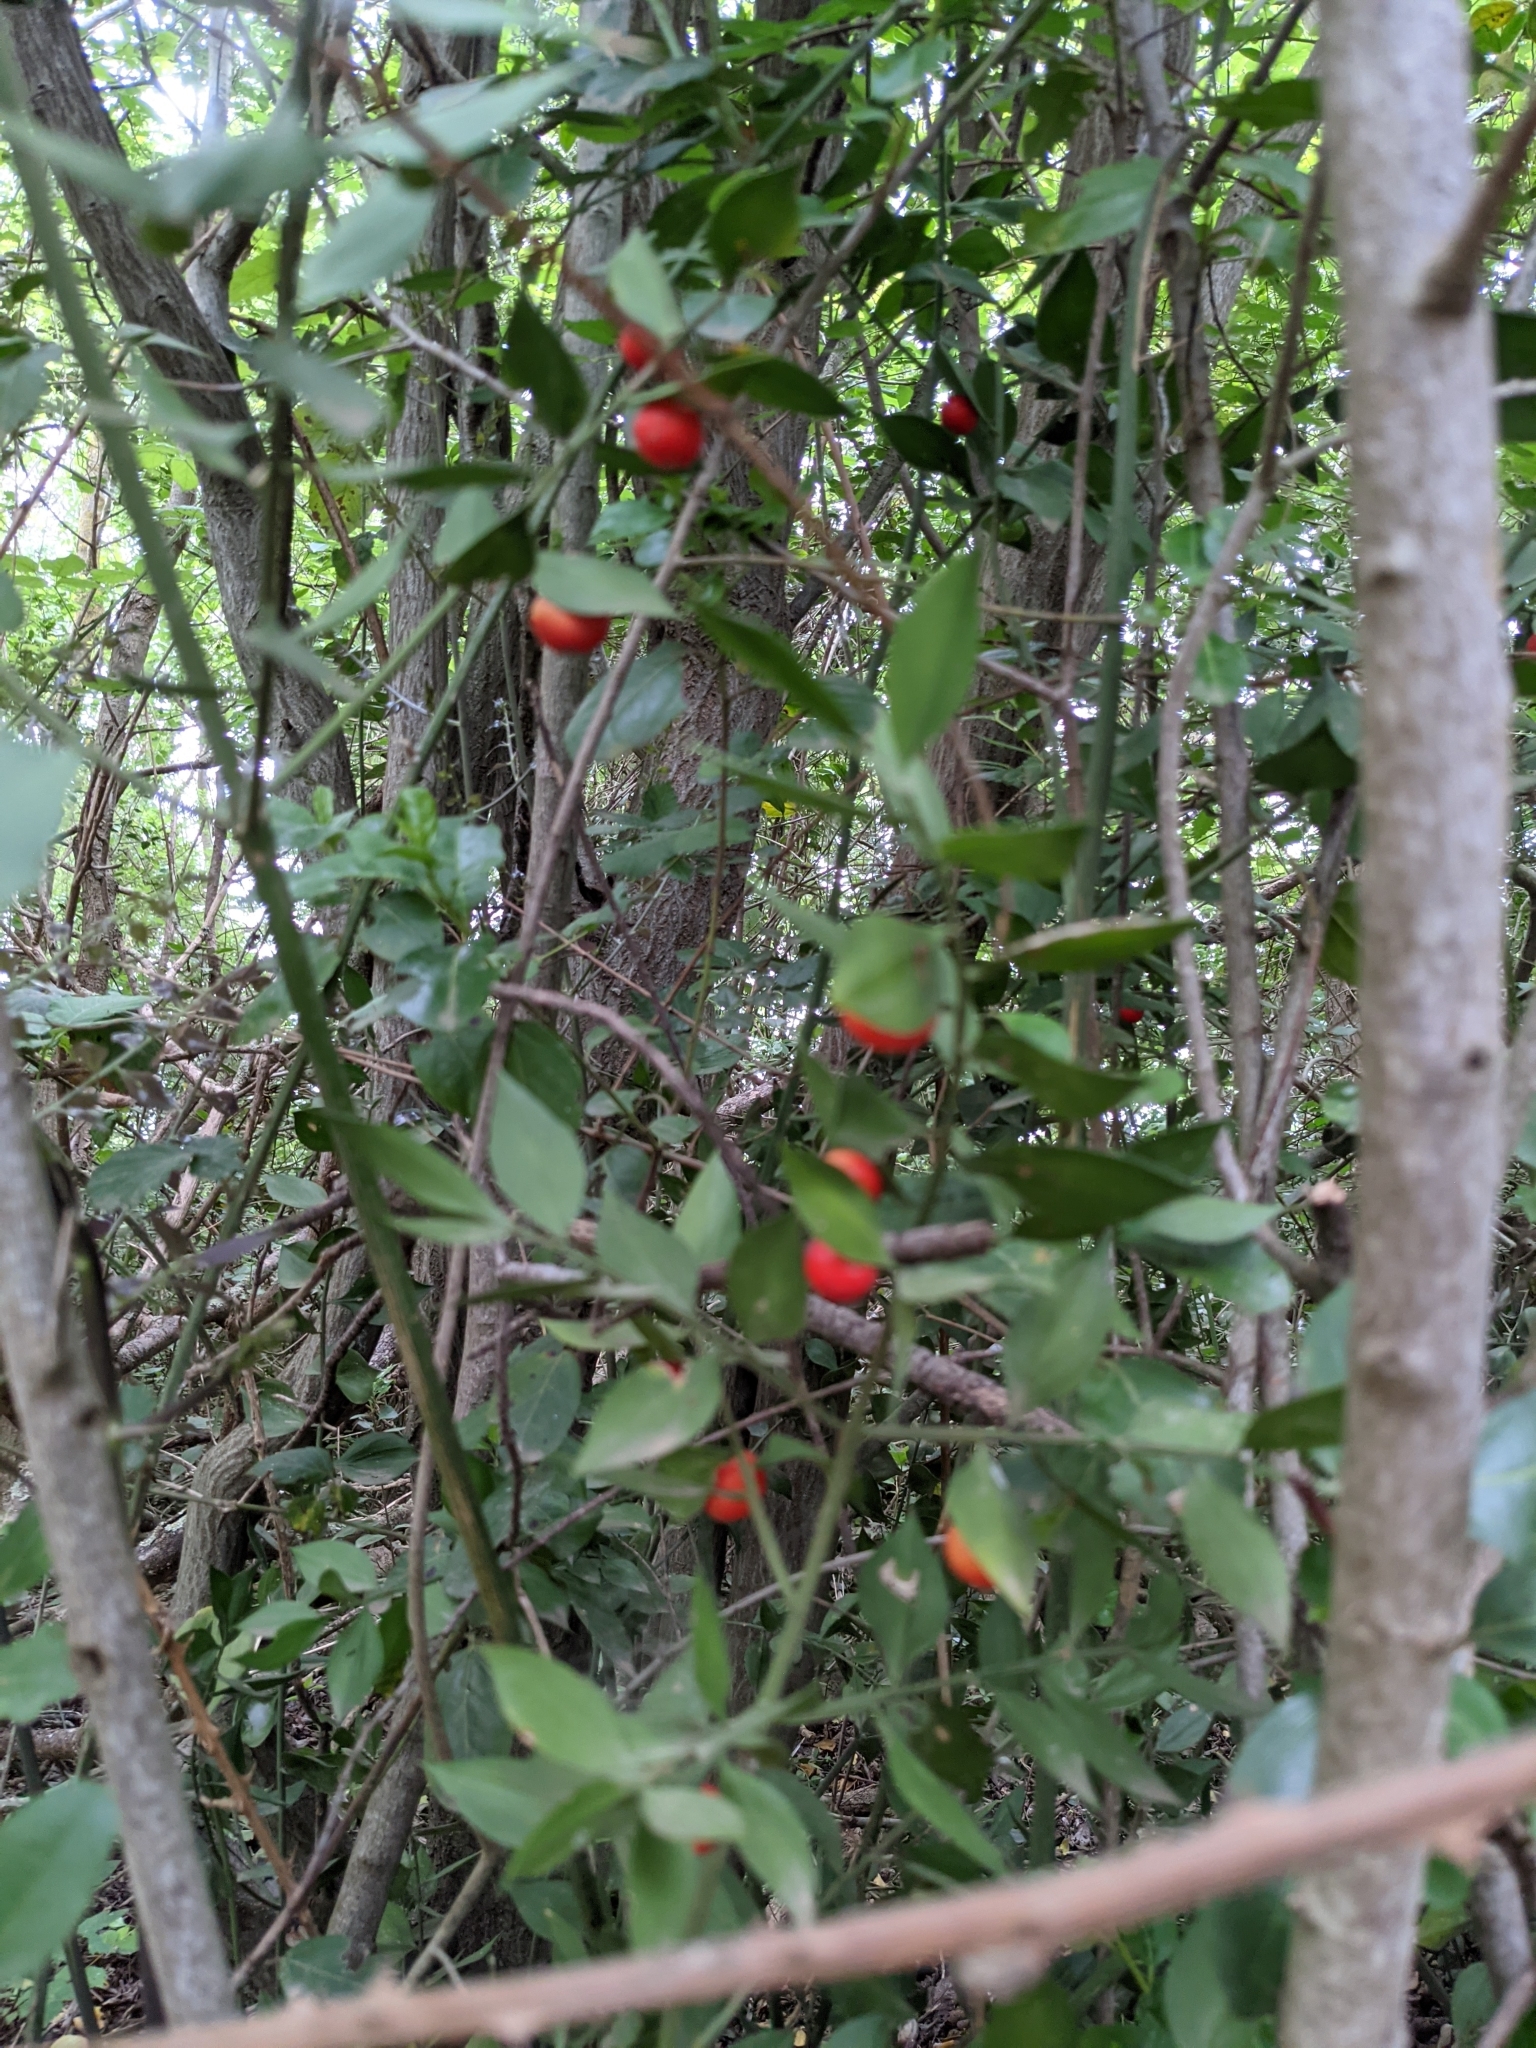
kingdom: Plantae
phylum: Tracheophyta
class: Liliopsida
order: Asparagales
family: Asparagaceae
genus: Ruscus
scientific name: Ruscus aculeatus
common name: Butcher's-broom
